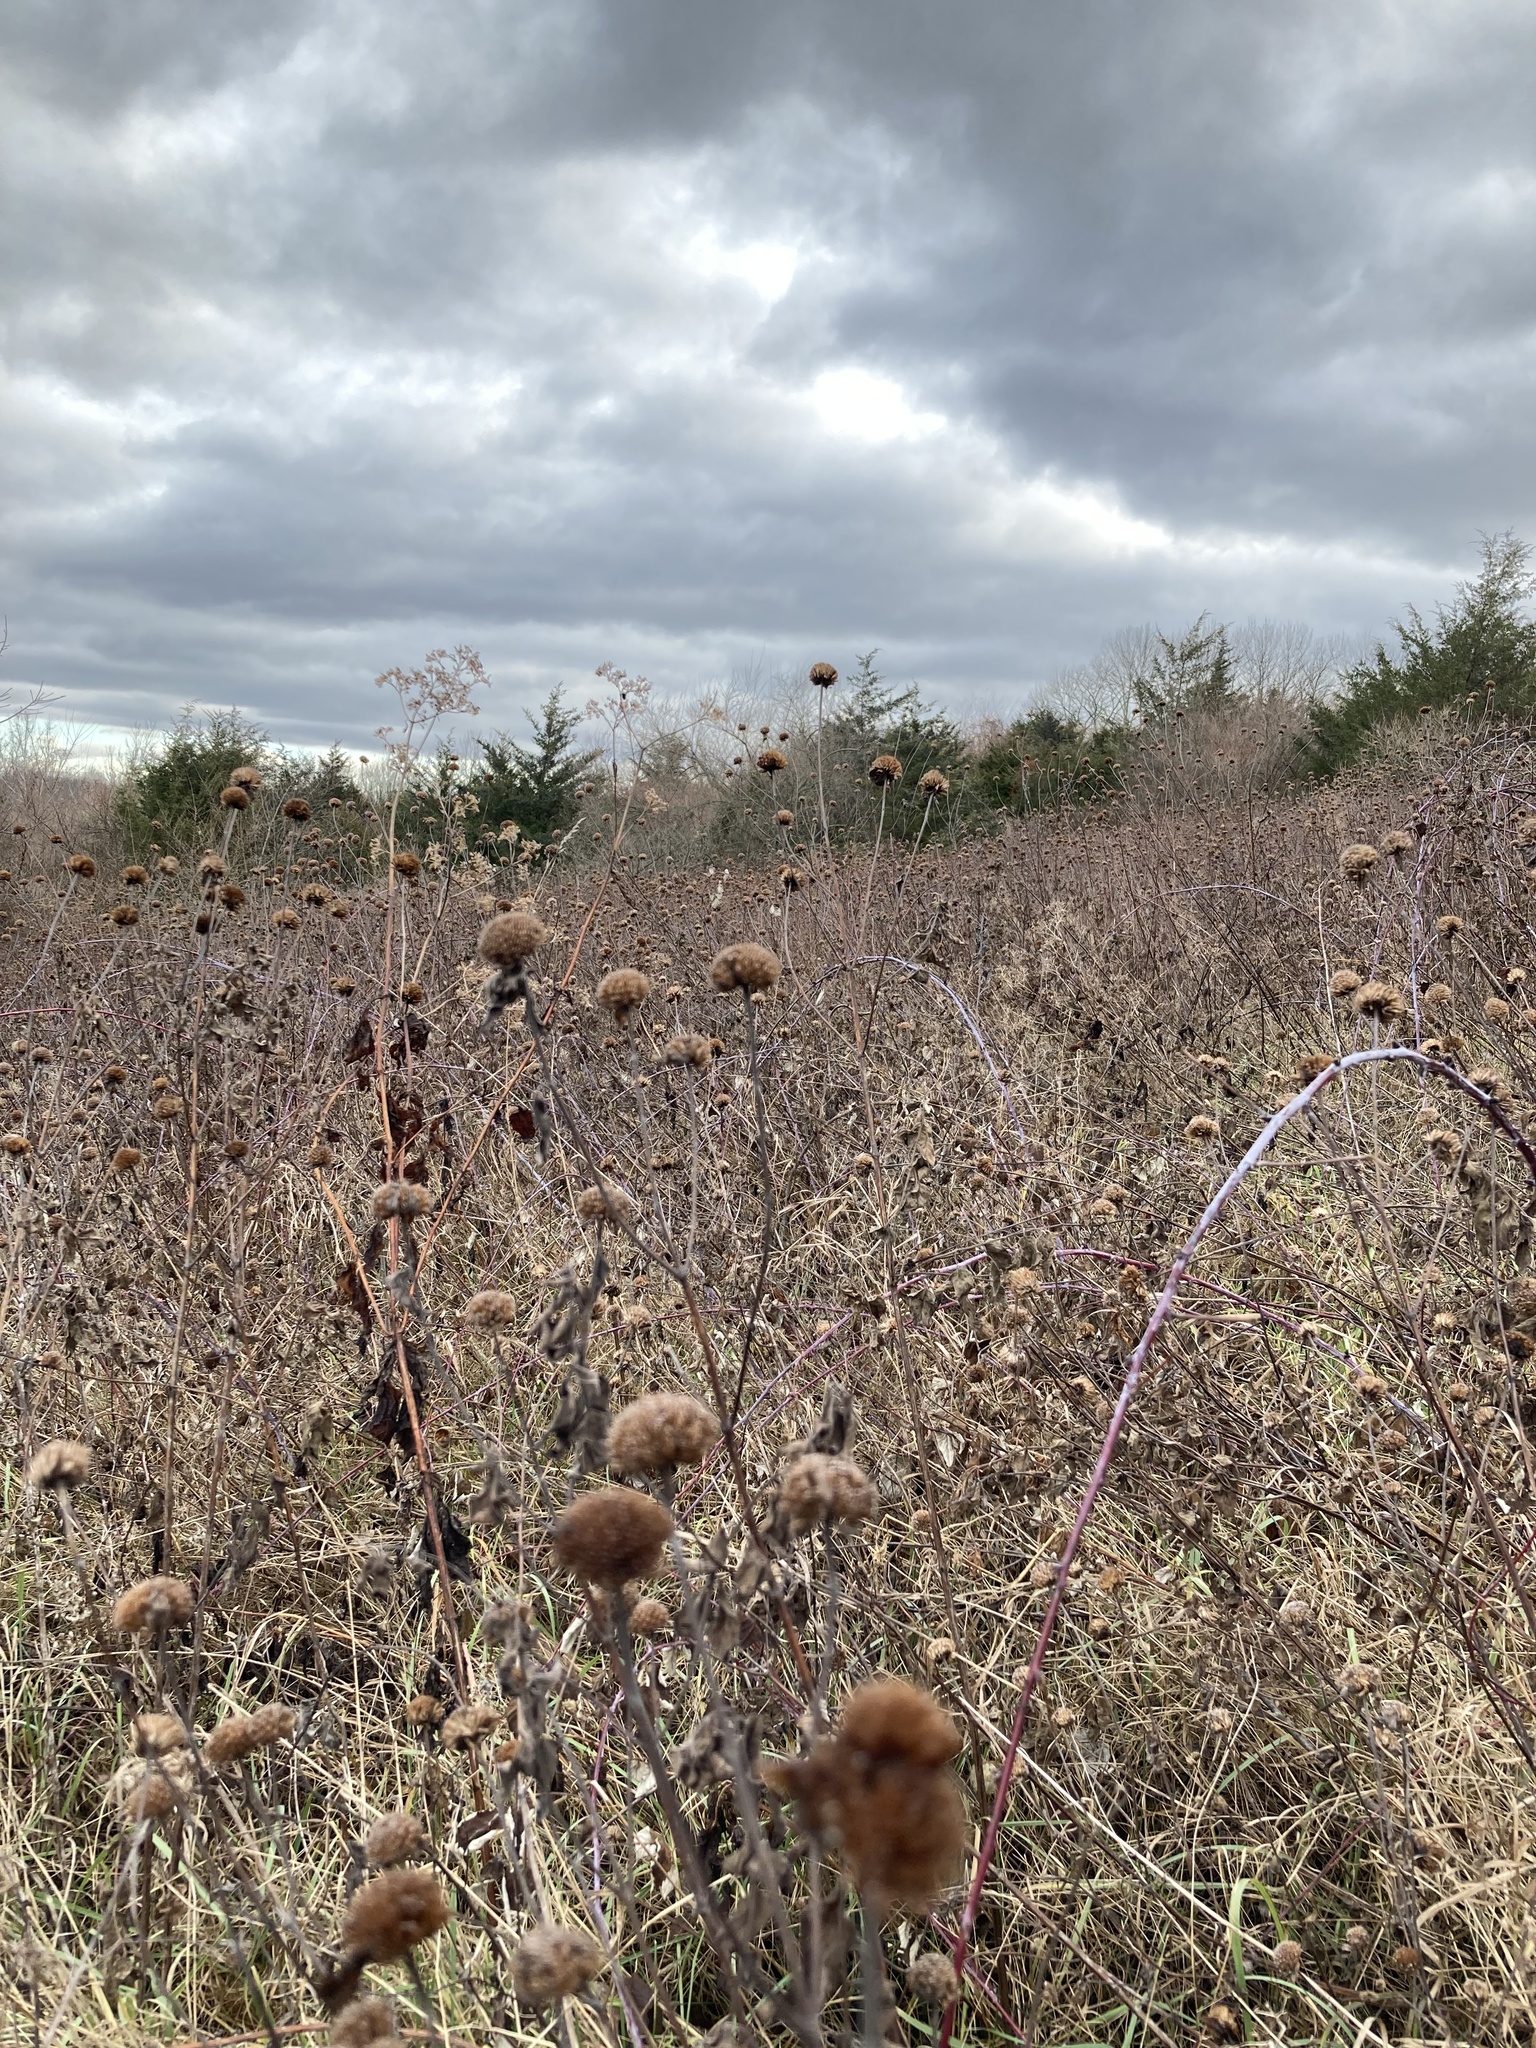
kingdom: Plantae
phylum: Tracheophyta
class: Magnoliopsida
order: Lamiales
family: Lamiaceae
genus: Monarda
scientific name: Monarda fistulosa
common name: Purple beebalm
